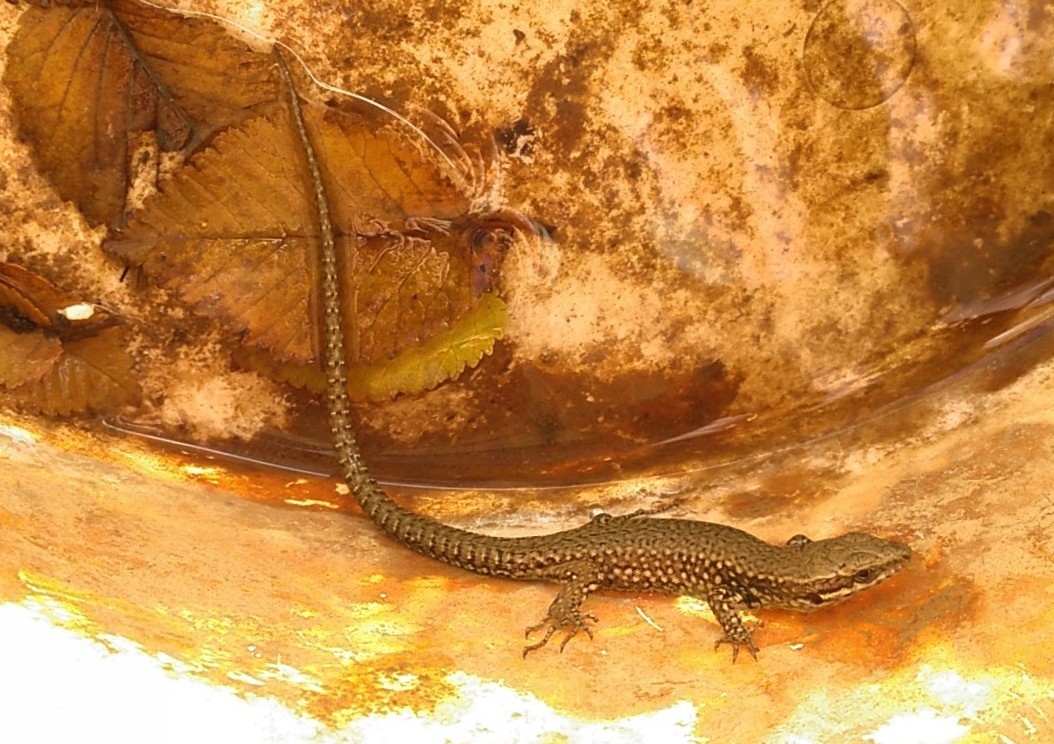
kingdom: Animalia
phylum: Chordata
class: Squamata
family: Lacertidae
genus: Podarcis
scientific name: Podarcis muralis
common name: Common wall lizard
